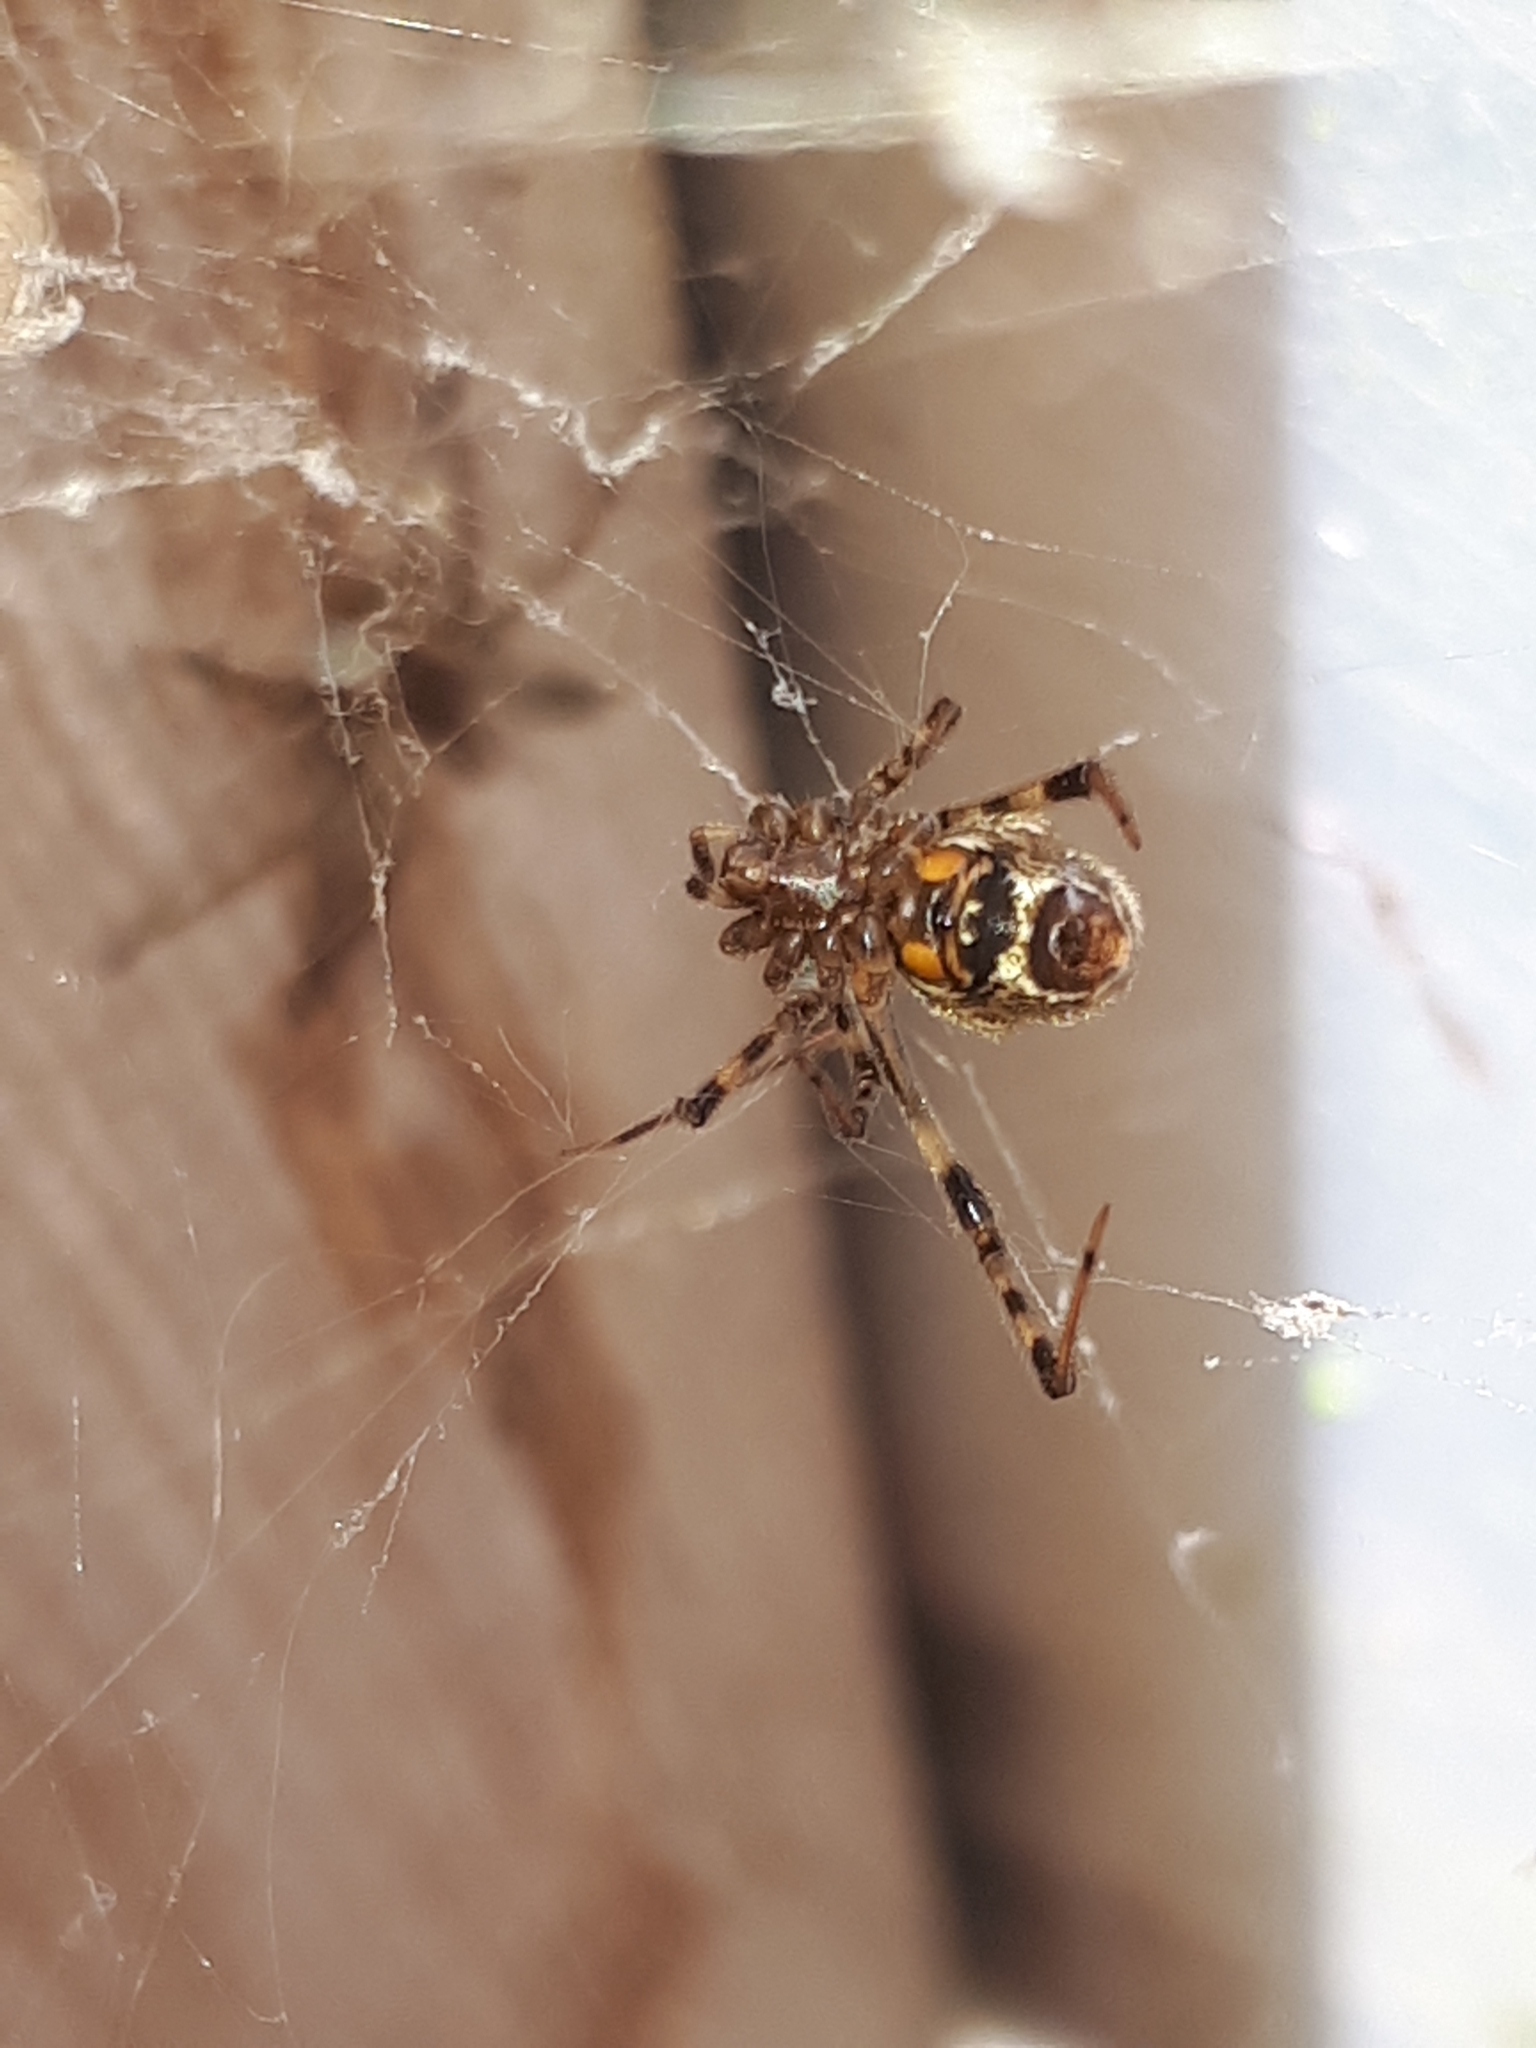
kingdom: Animalia
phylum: Arthropoda
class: Arachnida
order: Araneae
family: Theridiidae
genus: Parasteatoda
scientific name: Parasteatoda tepidariorum
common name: Common house spider
